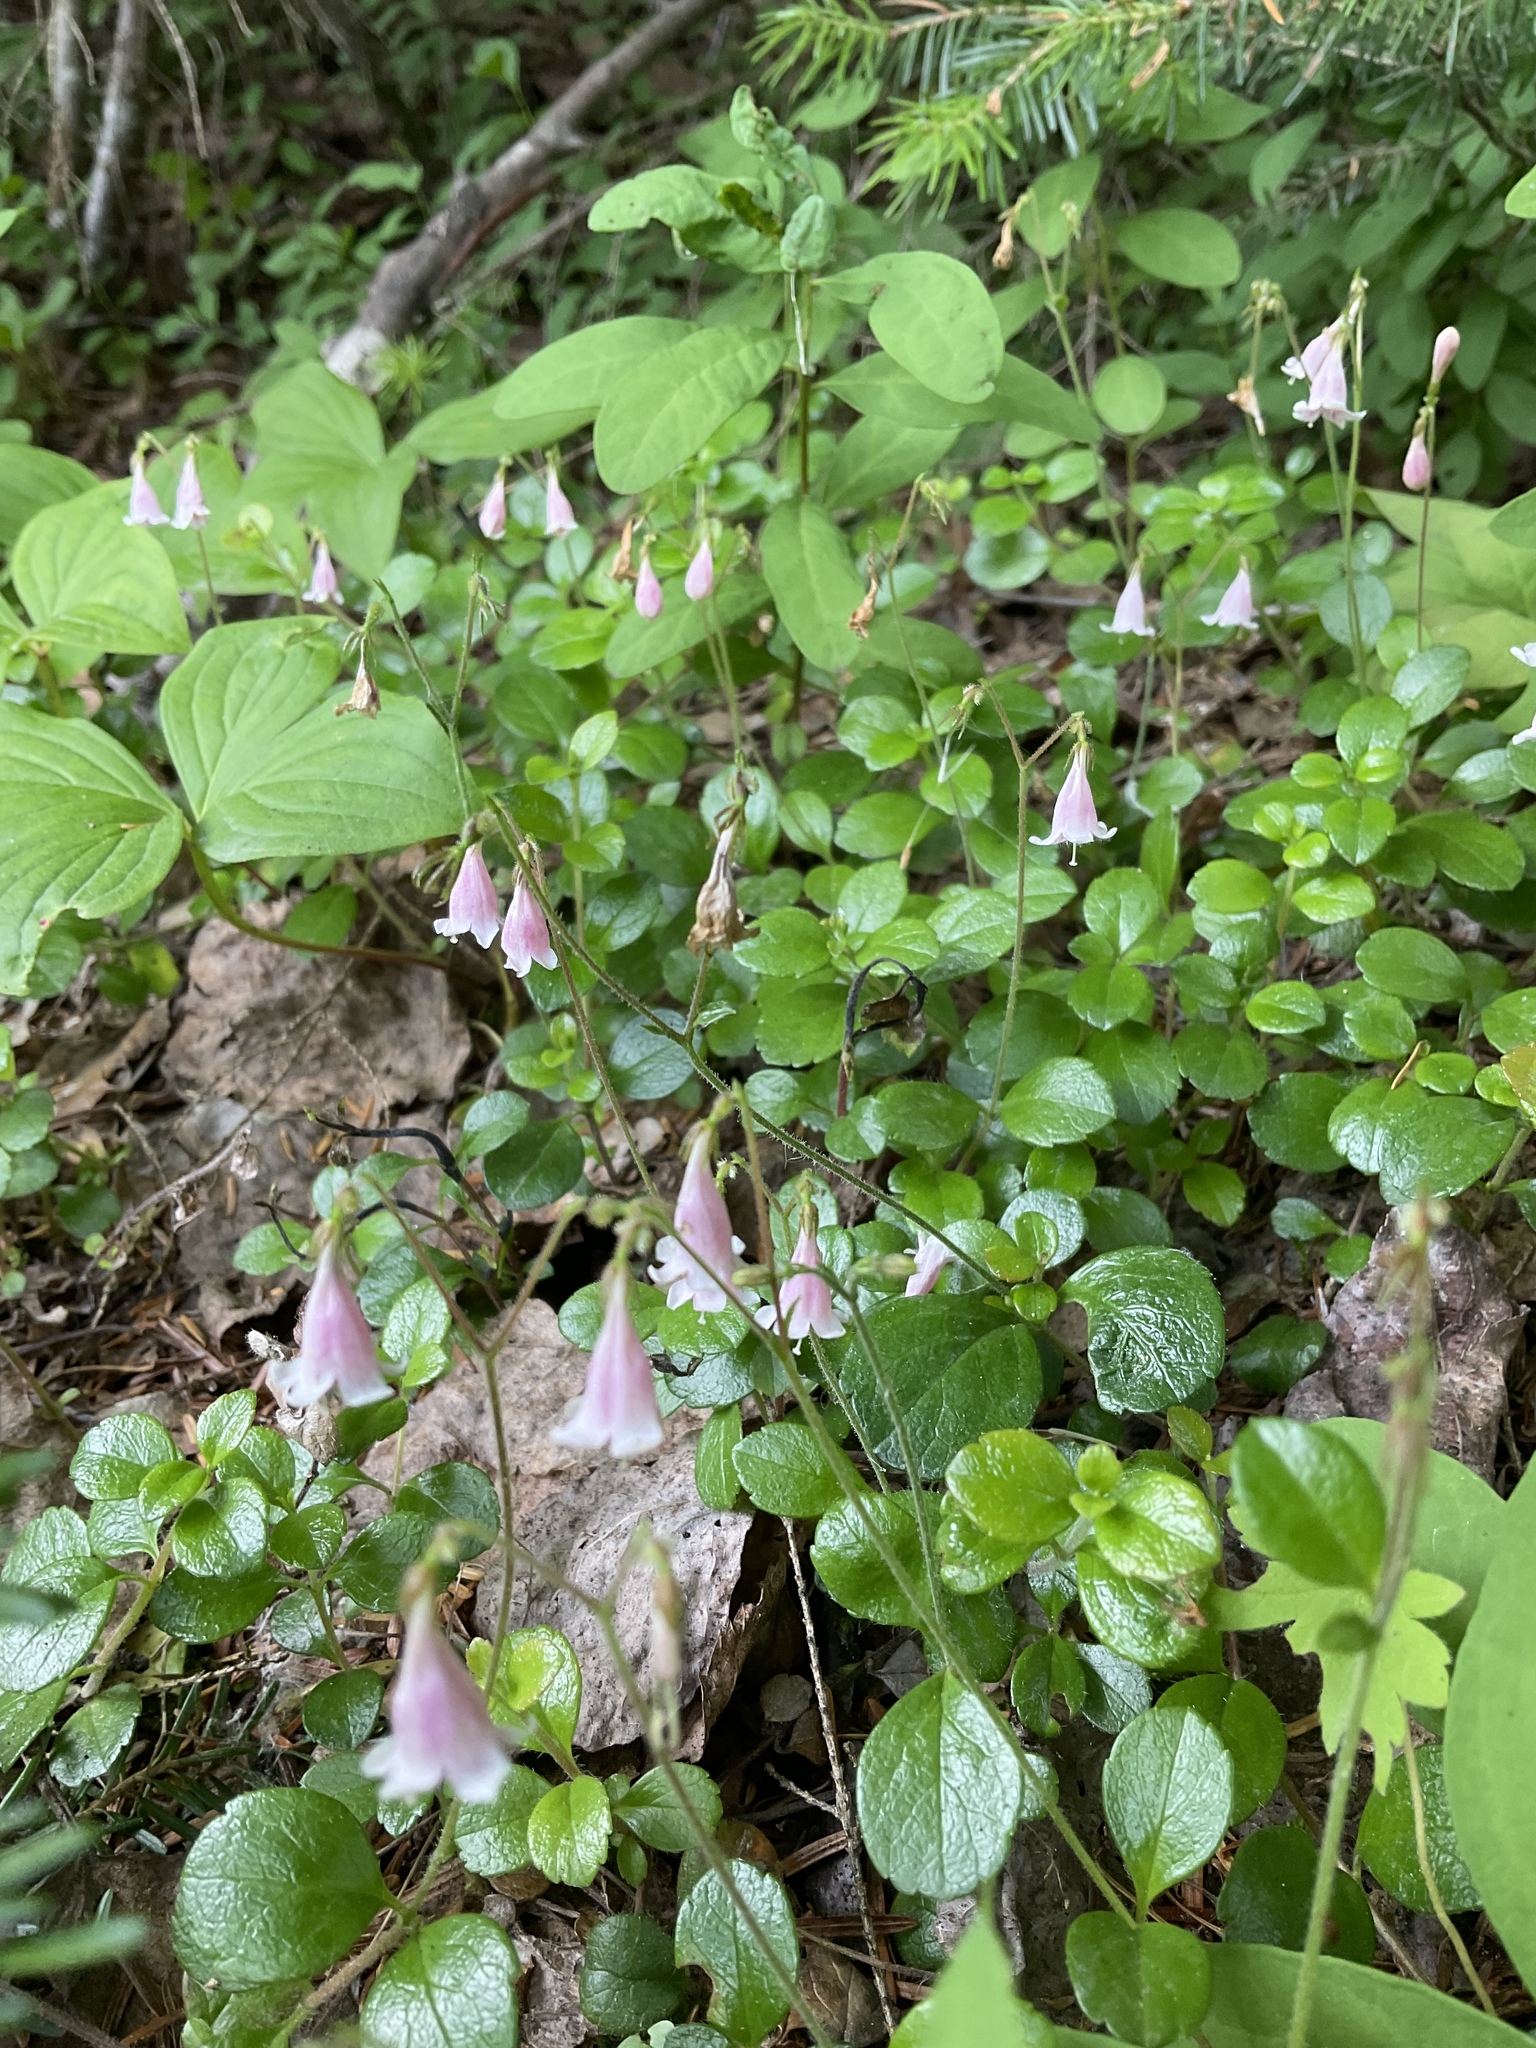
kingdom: Plantae
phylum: Tracheophyta
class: Magnoliopsida
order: Dipsacales
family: Caprifoliaceae
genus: Linnaea
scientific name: Linnaea borealis
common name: Twinflower
